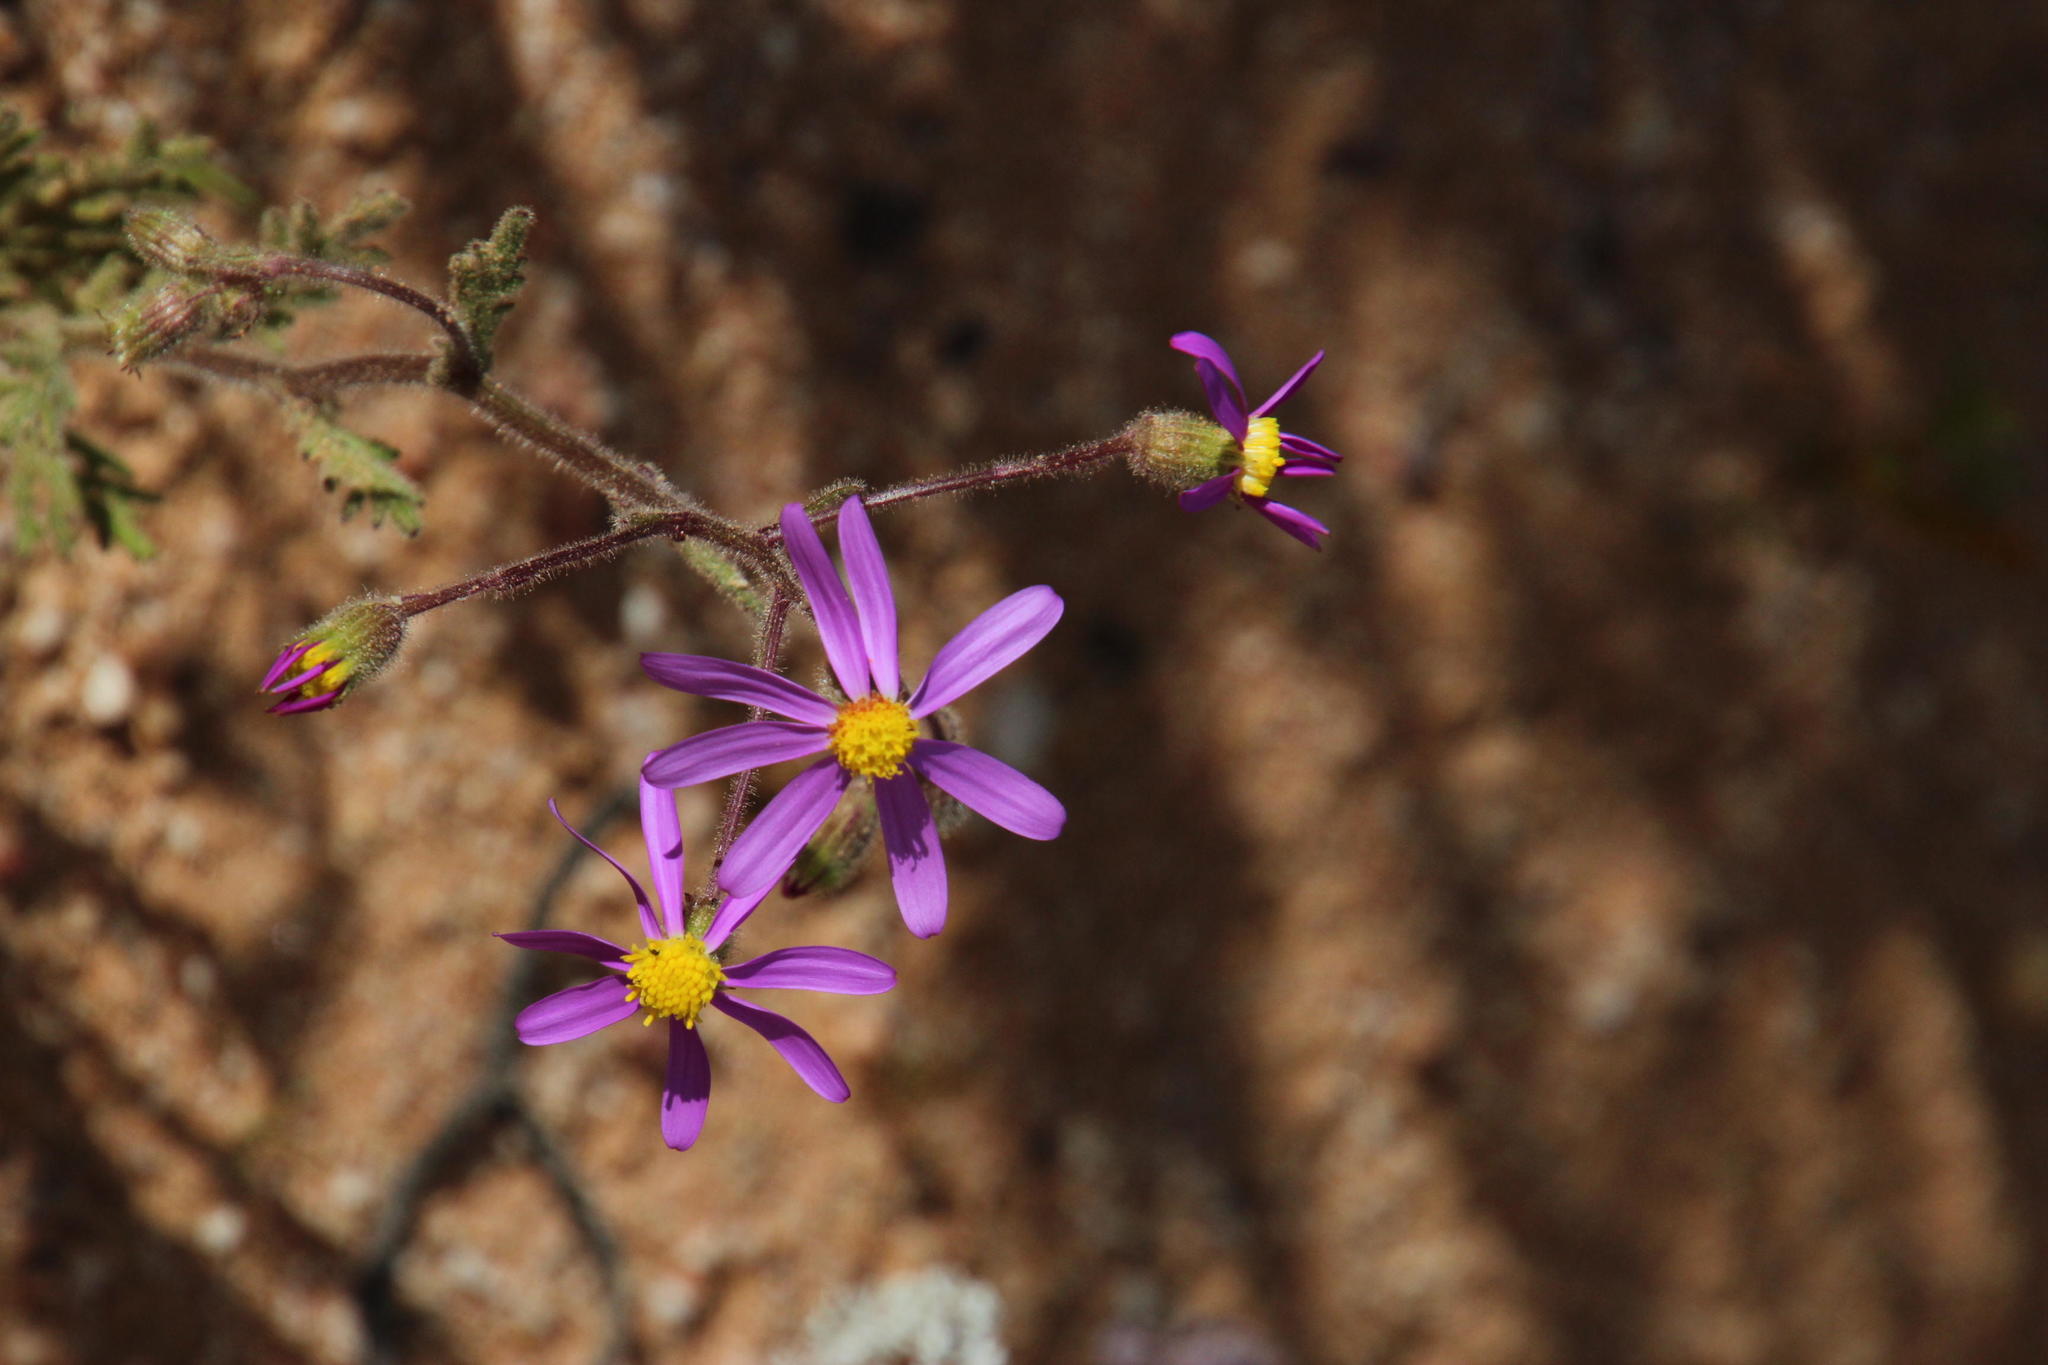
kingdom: Plantae
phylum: Tracheophyta
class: Magnoliopsida
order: Asterales
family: Asteraceae
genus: Senecio
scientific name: Senecio arenarius
